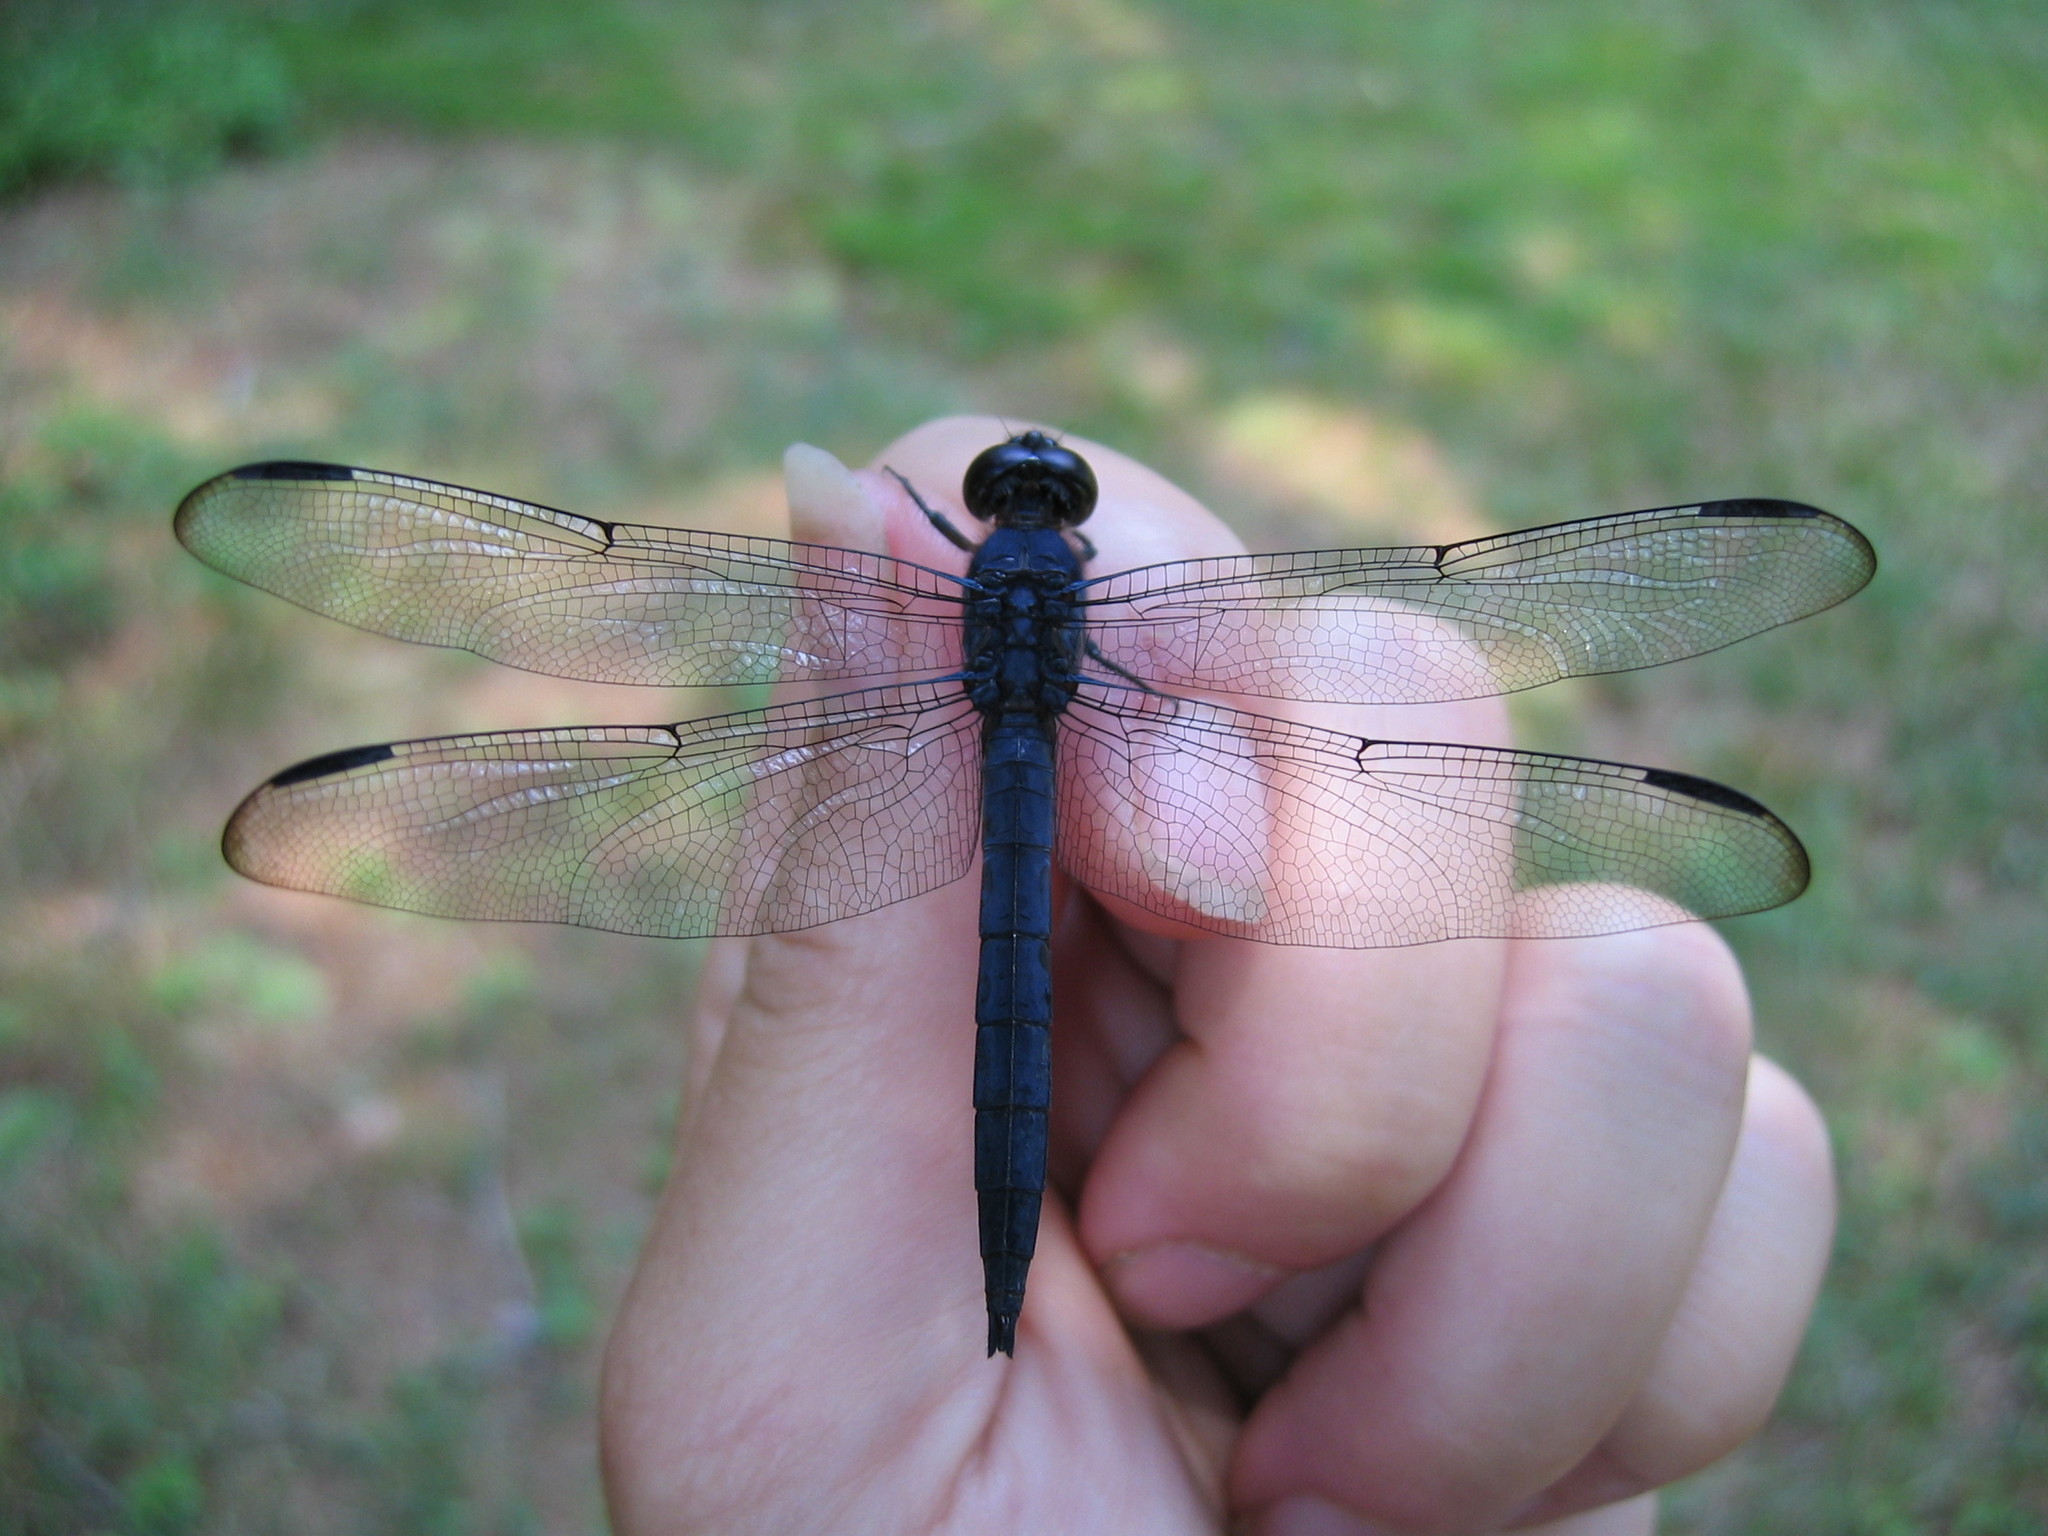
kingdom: Animalia
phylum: Arthropoda
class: Insecta
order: Odonata
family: Libellulidae
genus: Libellula
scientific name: Libellula incesta
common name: Slaty skimmer
